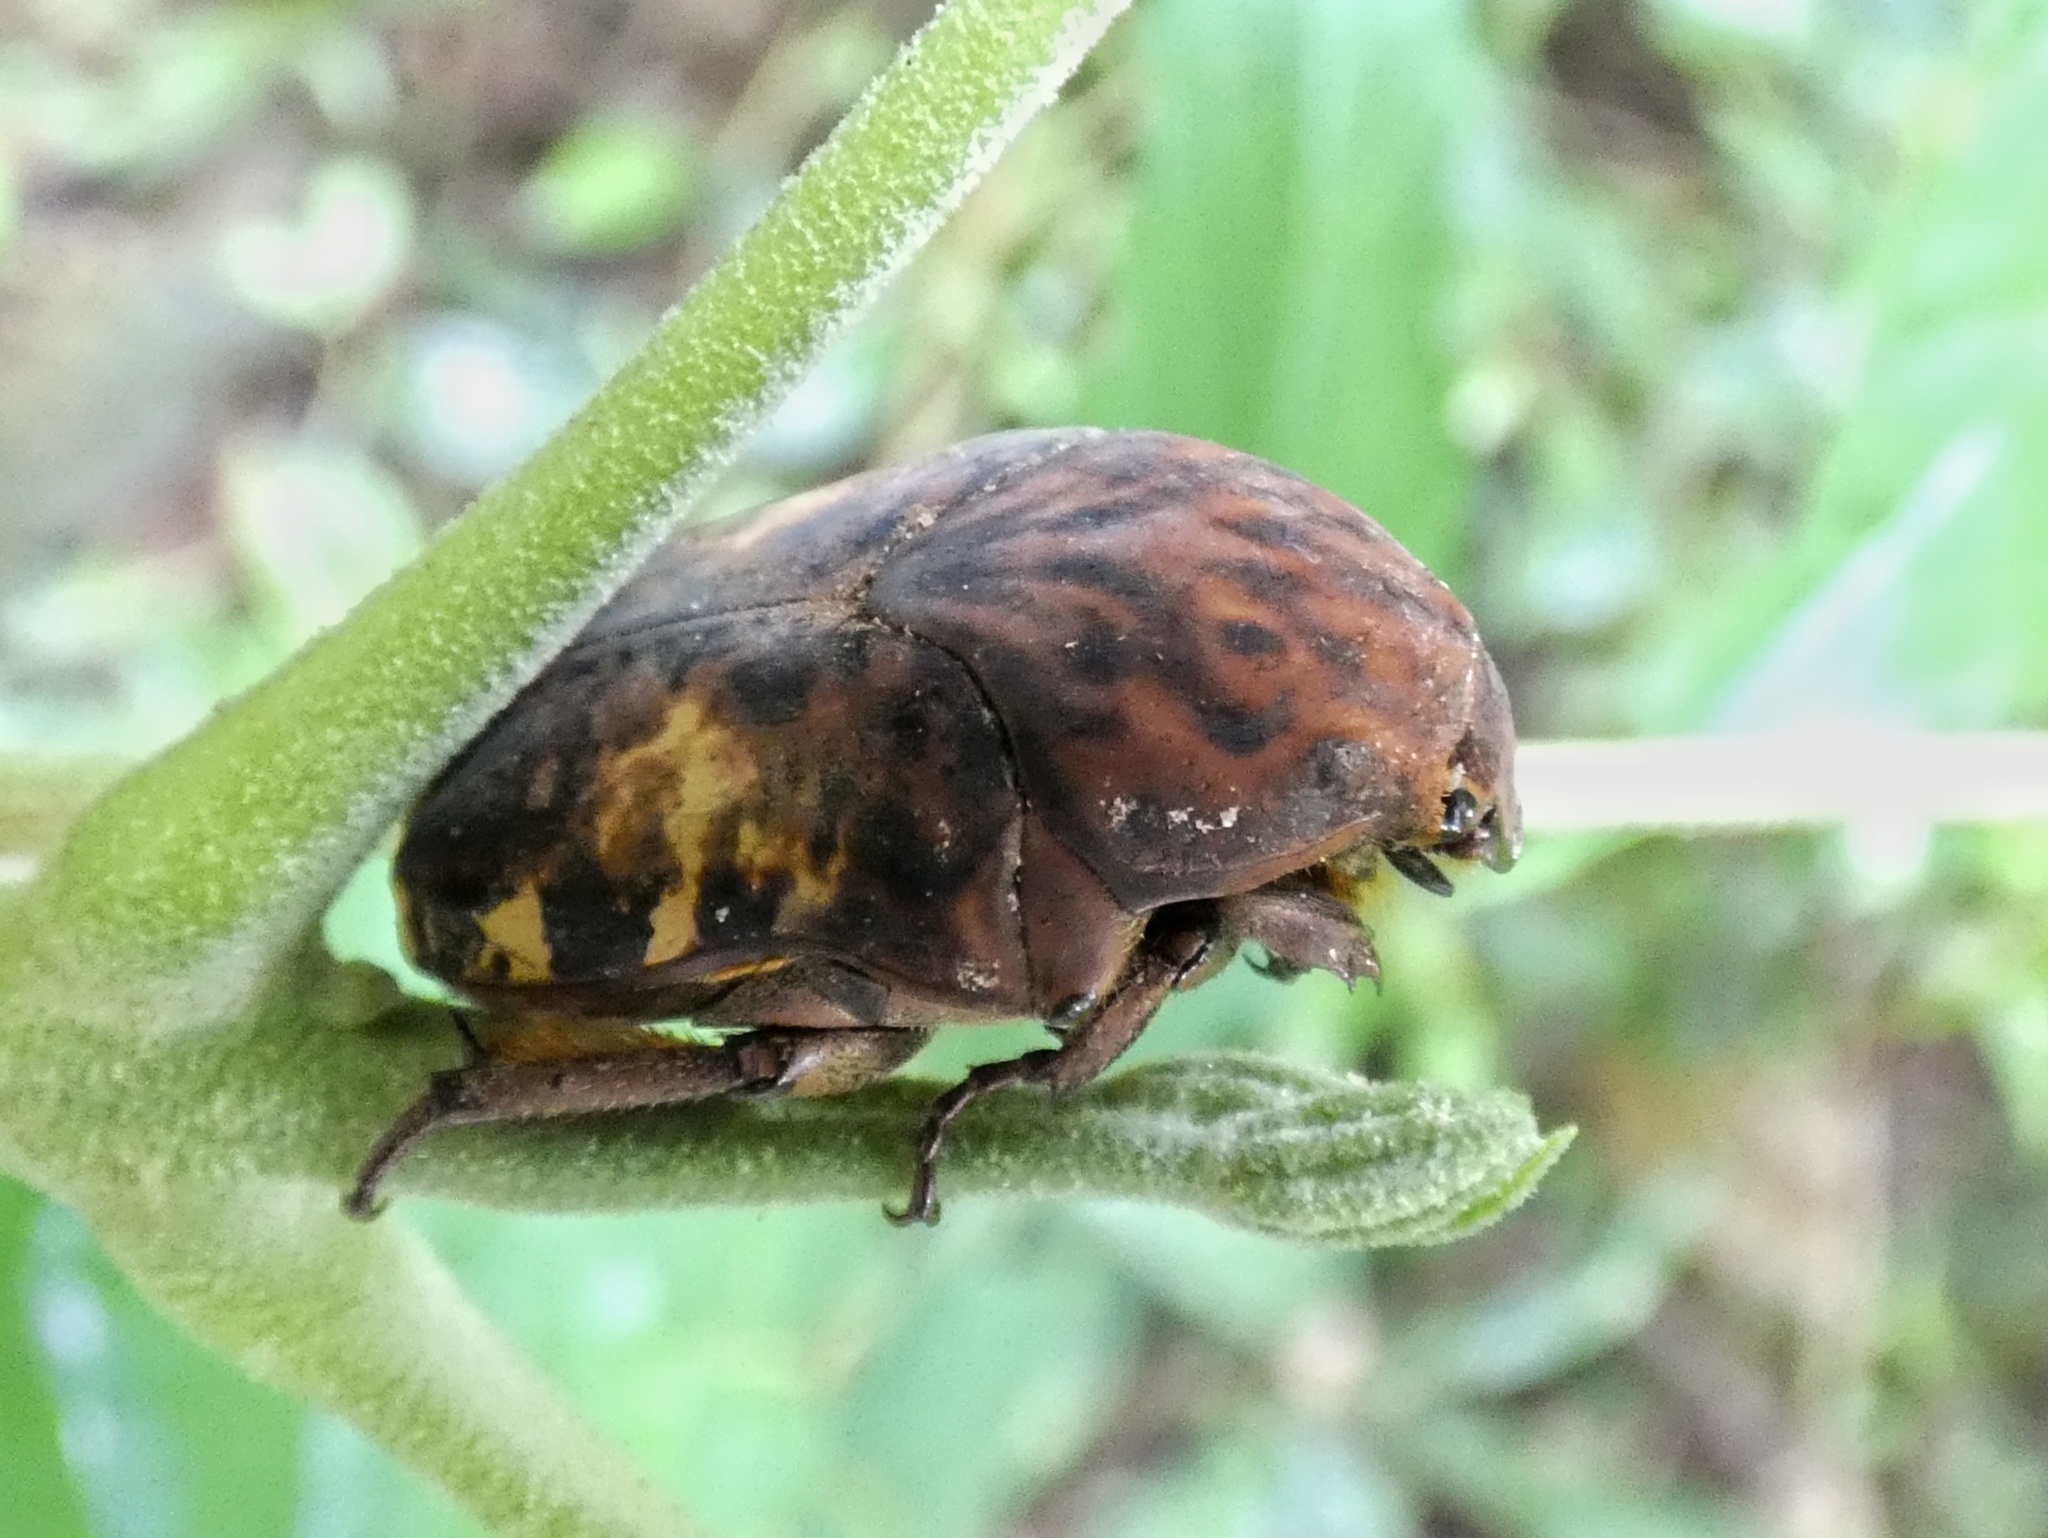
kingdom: Animalia
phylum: Arthropoda
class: Insecta
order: Coleoptera
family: Scarabaeidae
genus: Gymnetis
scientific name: Gymnetis cupriventris
